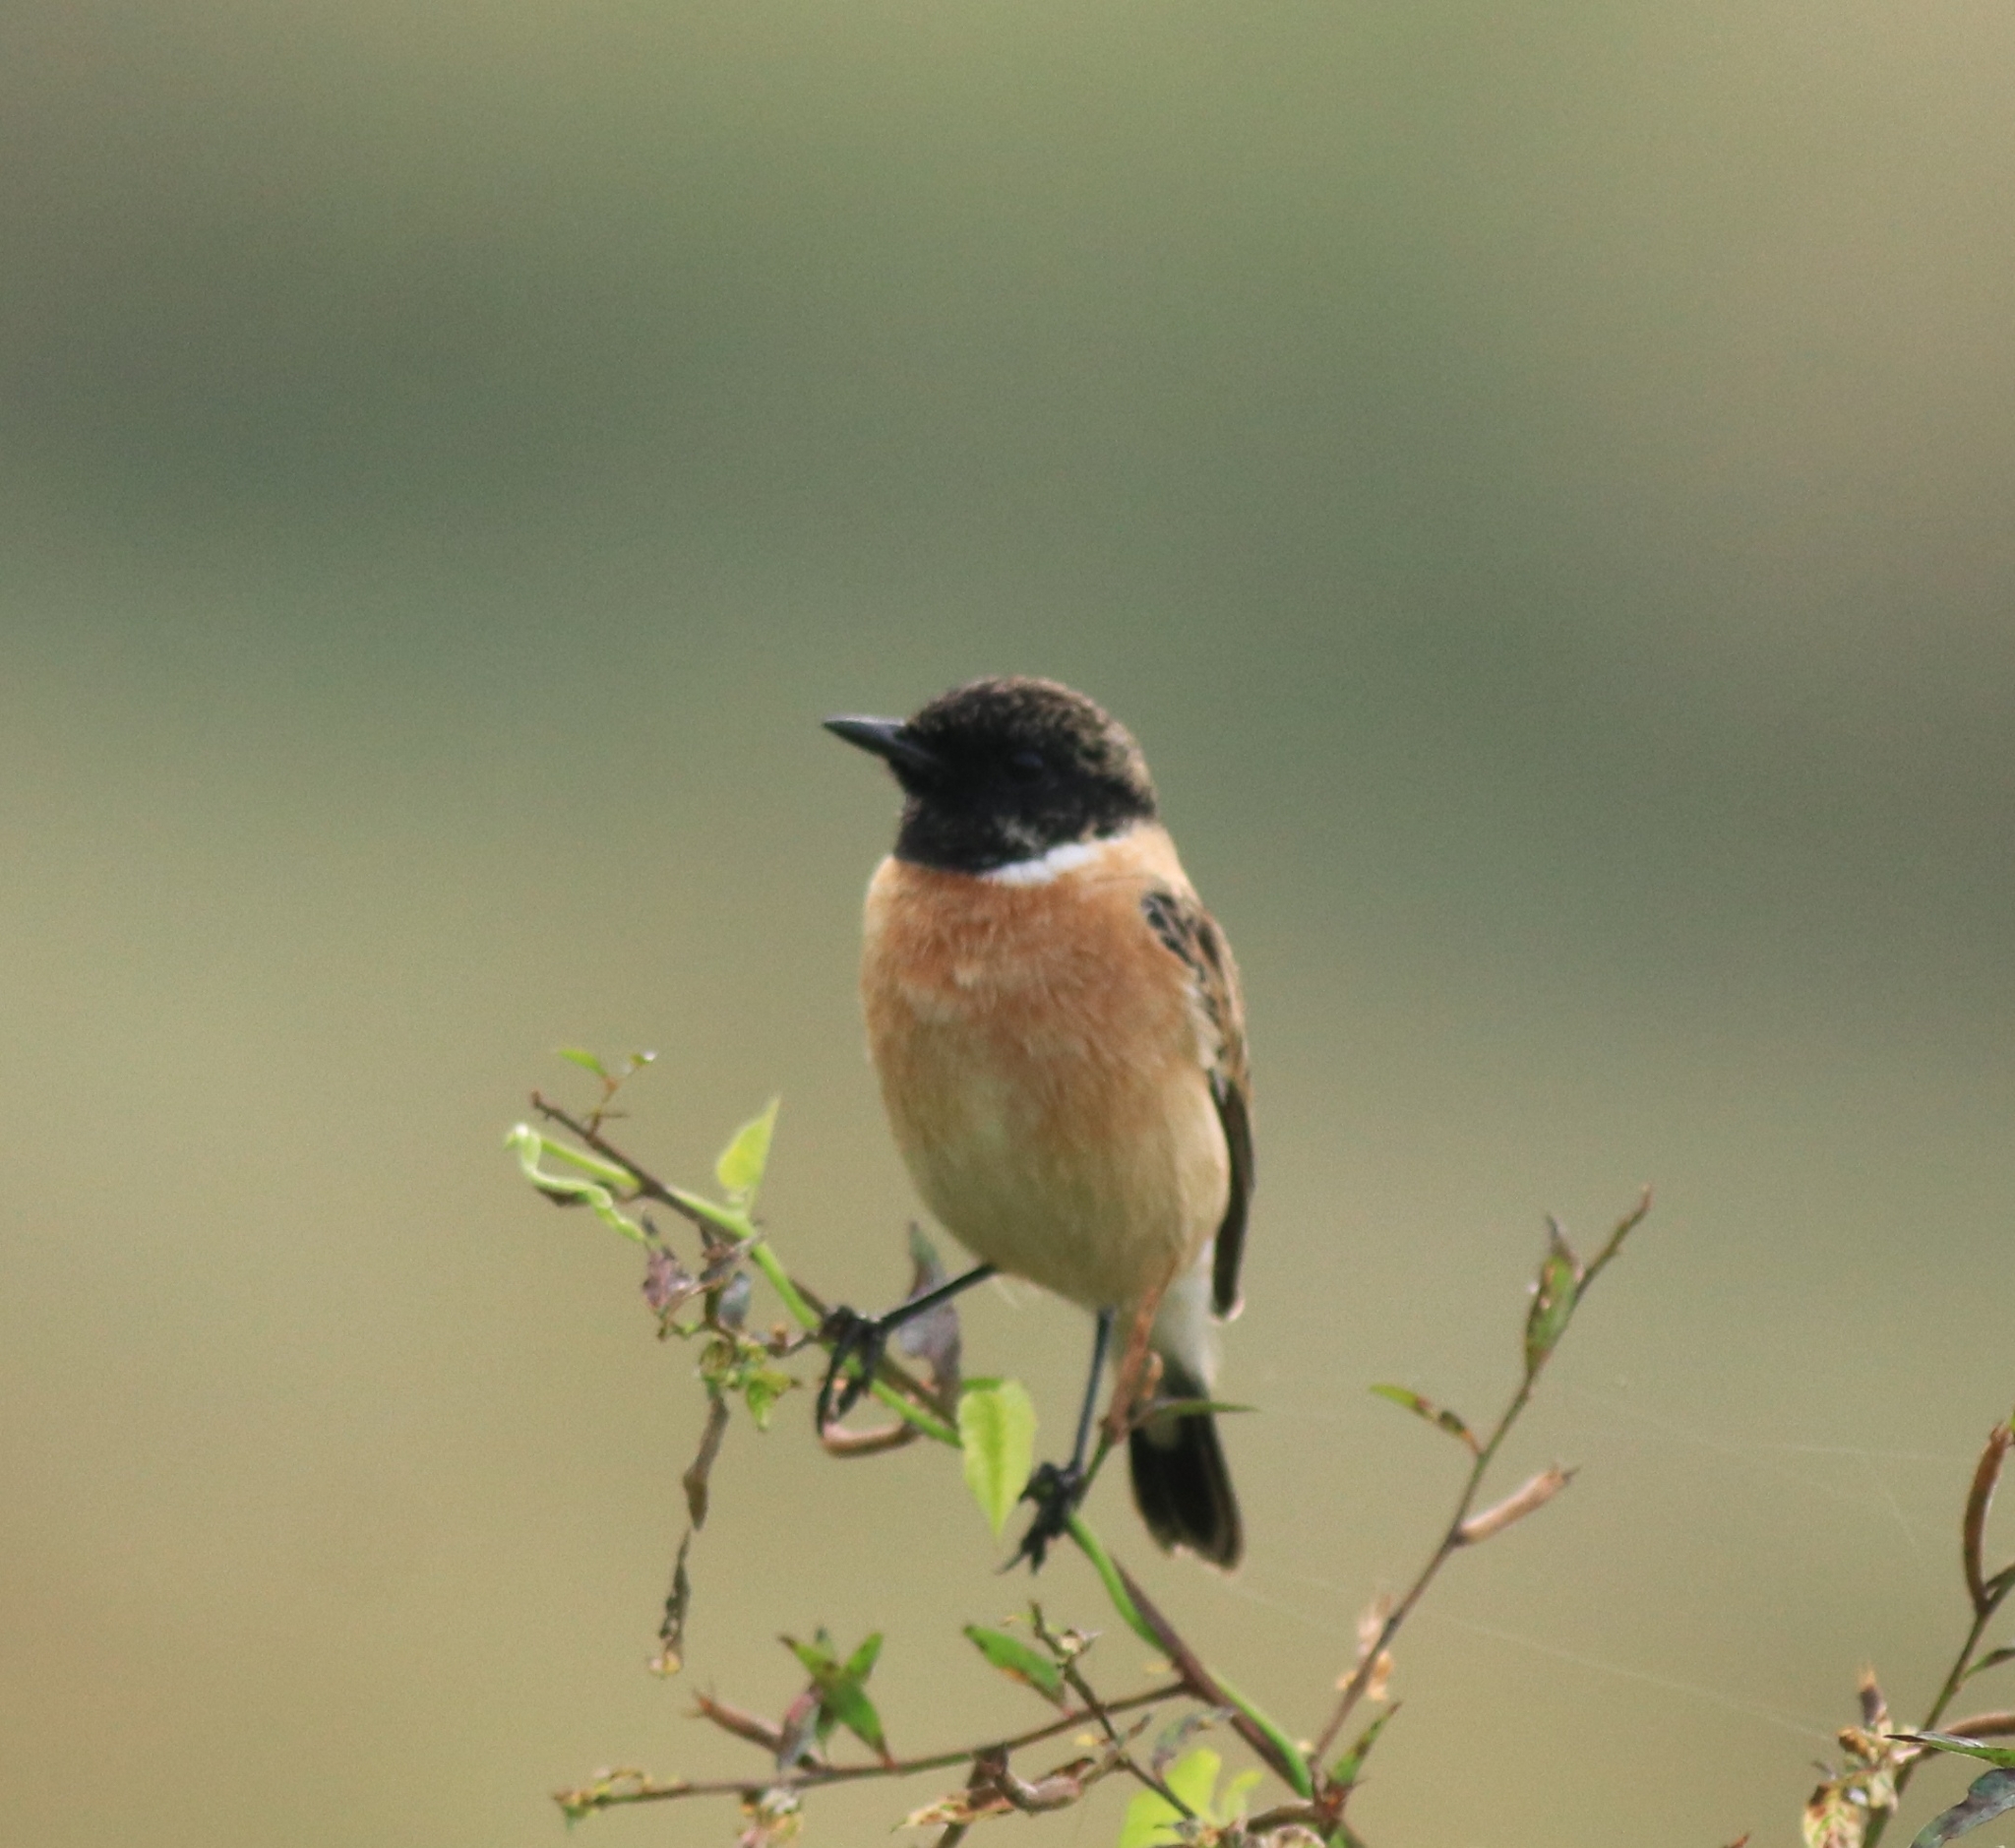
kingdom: Animalia
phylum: Chordata
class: Aves
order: Passeriformes
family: Muscicapidae
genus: Saxicola
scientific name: Saxicola maurus
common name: Siberian stonechat
